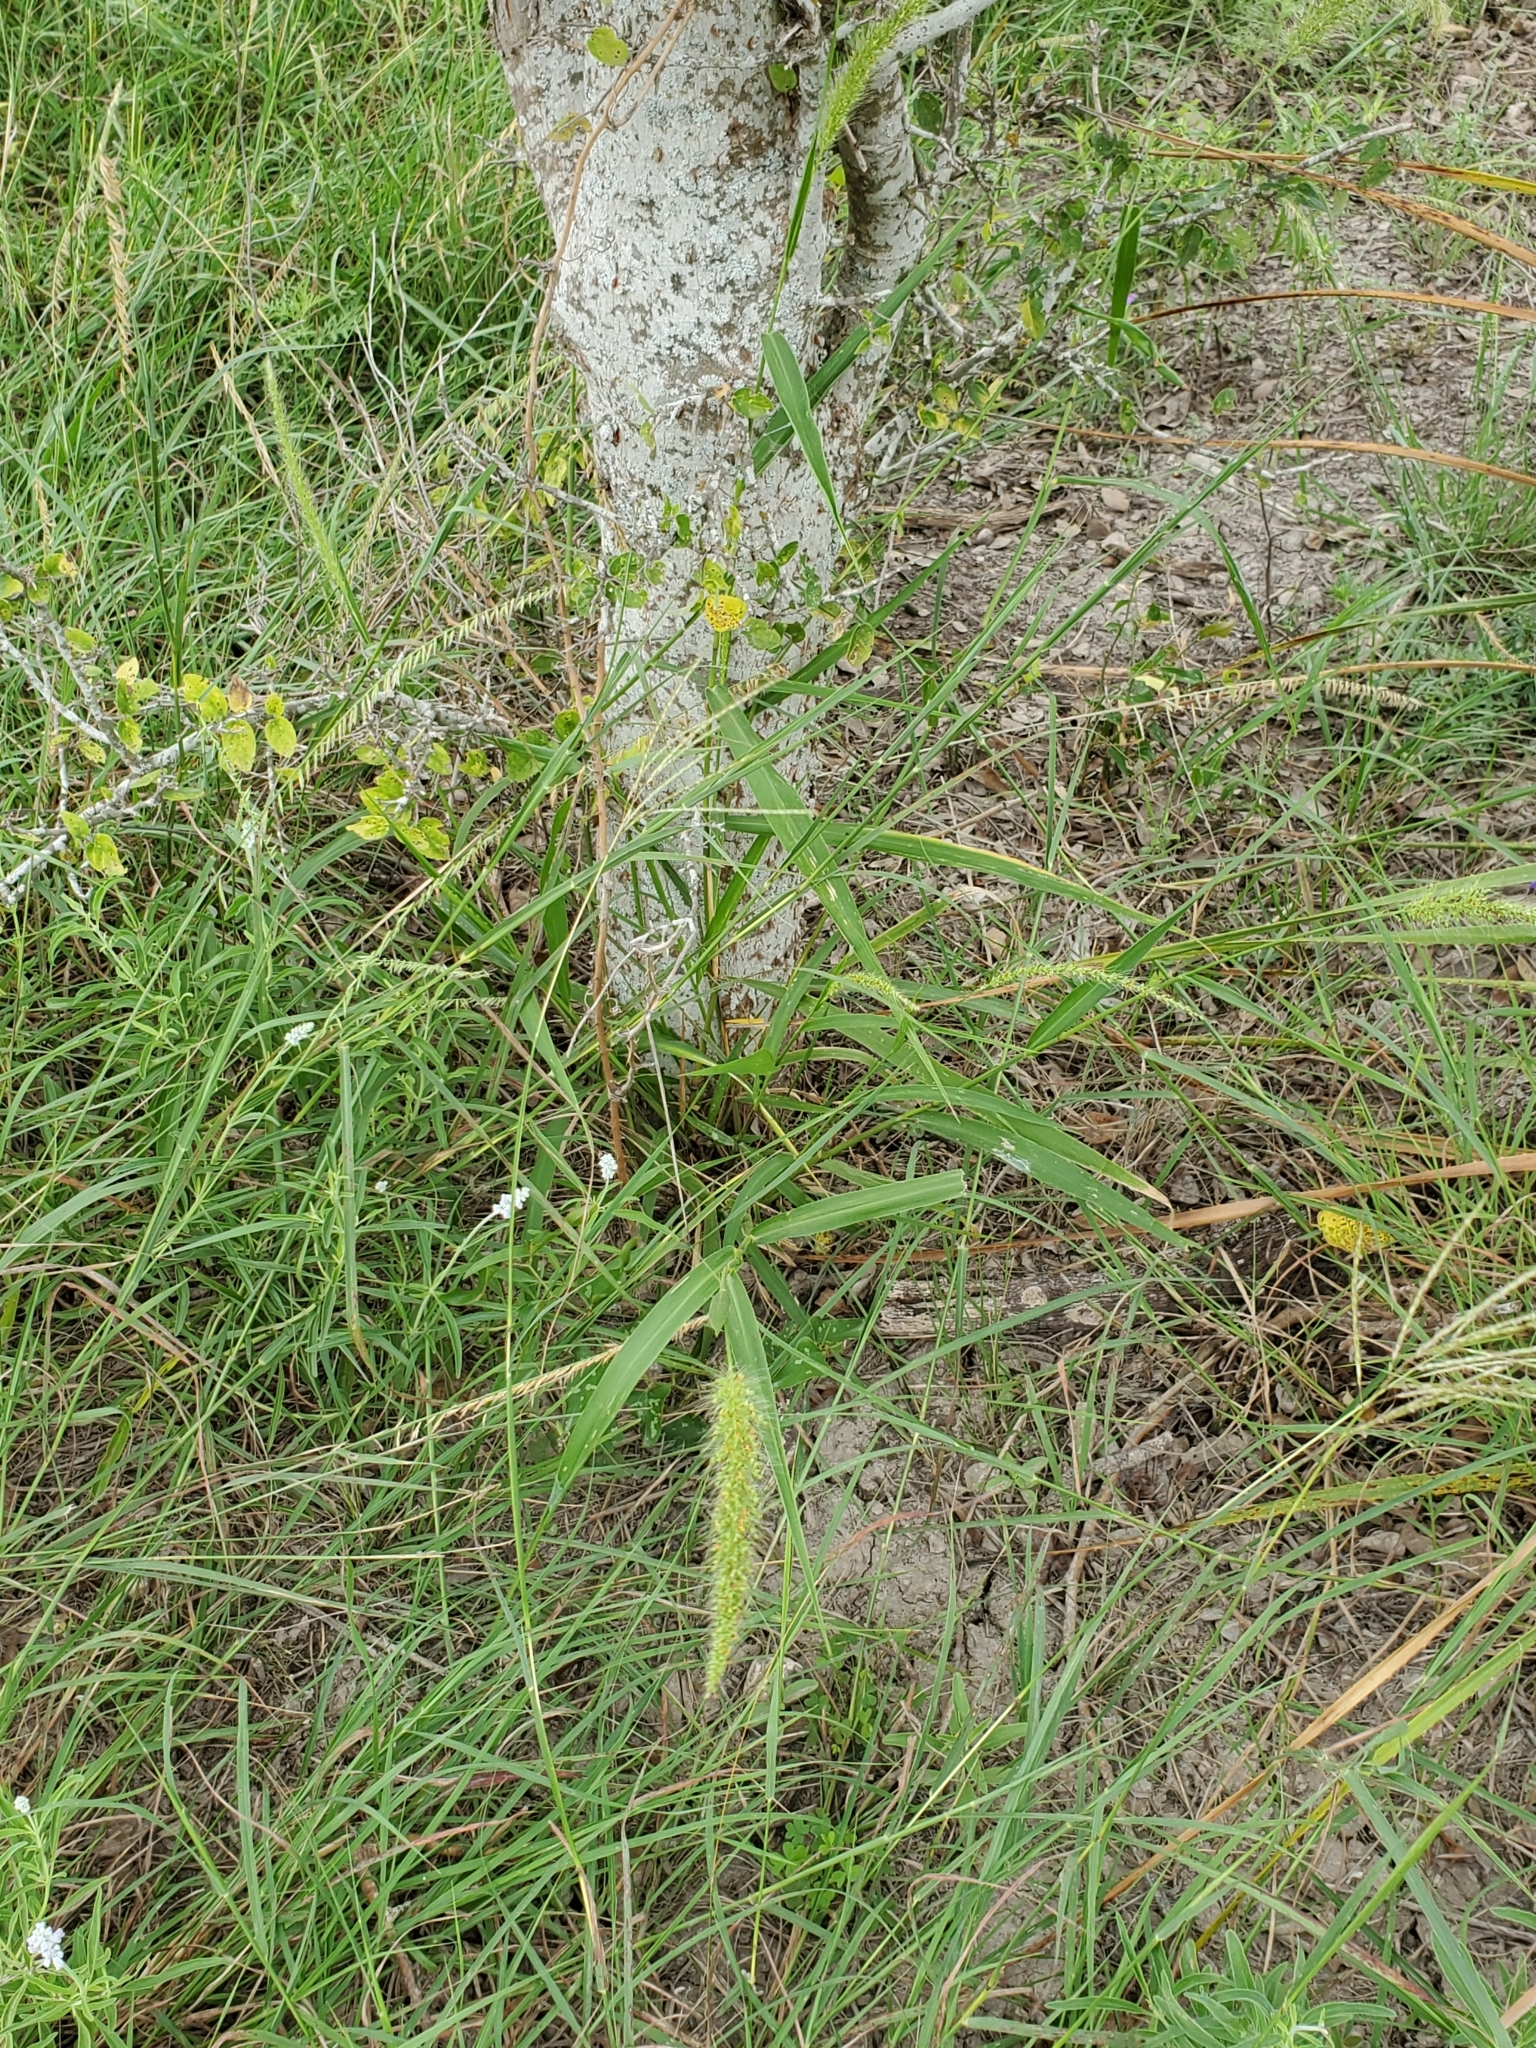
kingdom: Plantae
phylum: Tracheophyta
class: Liliopsida
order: Poales
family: Poaceae
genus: Setaria
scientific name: Setaria scheelei
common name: Southwestern bristle grass
